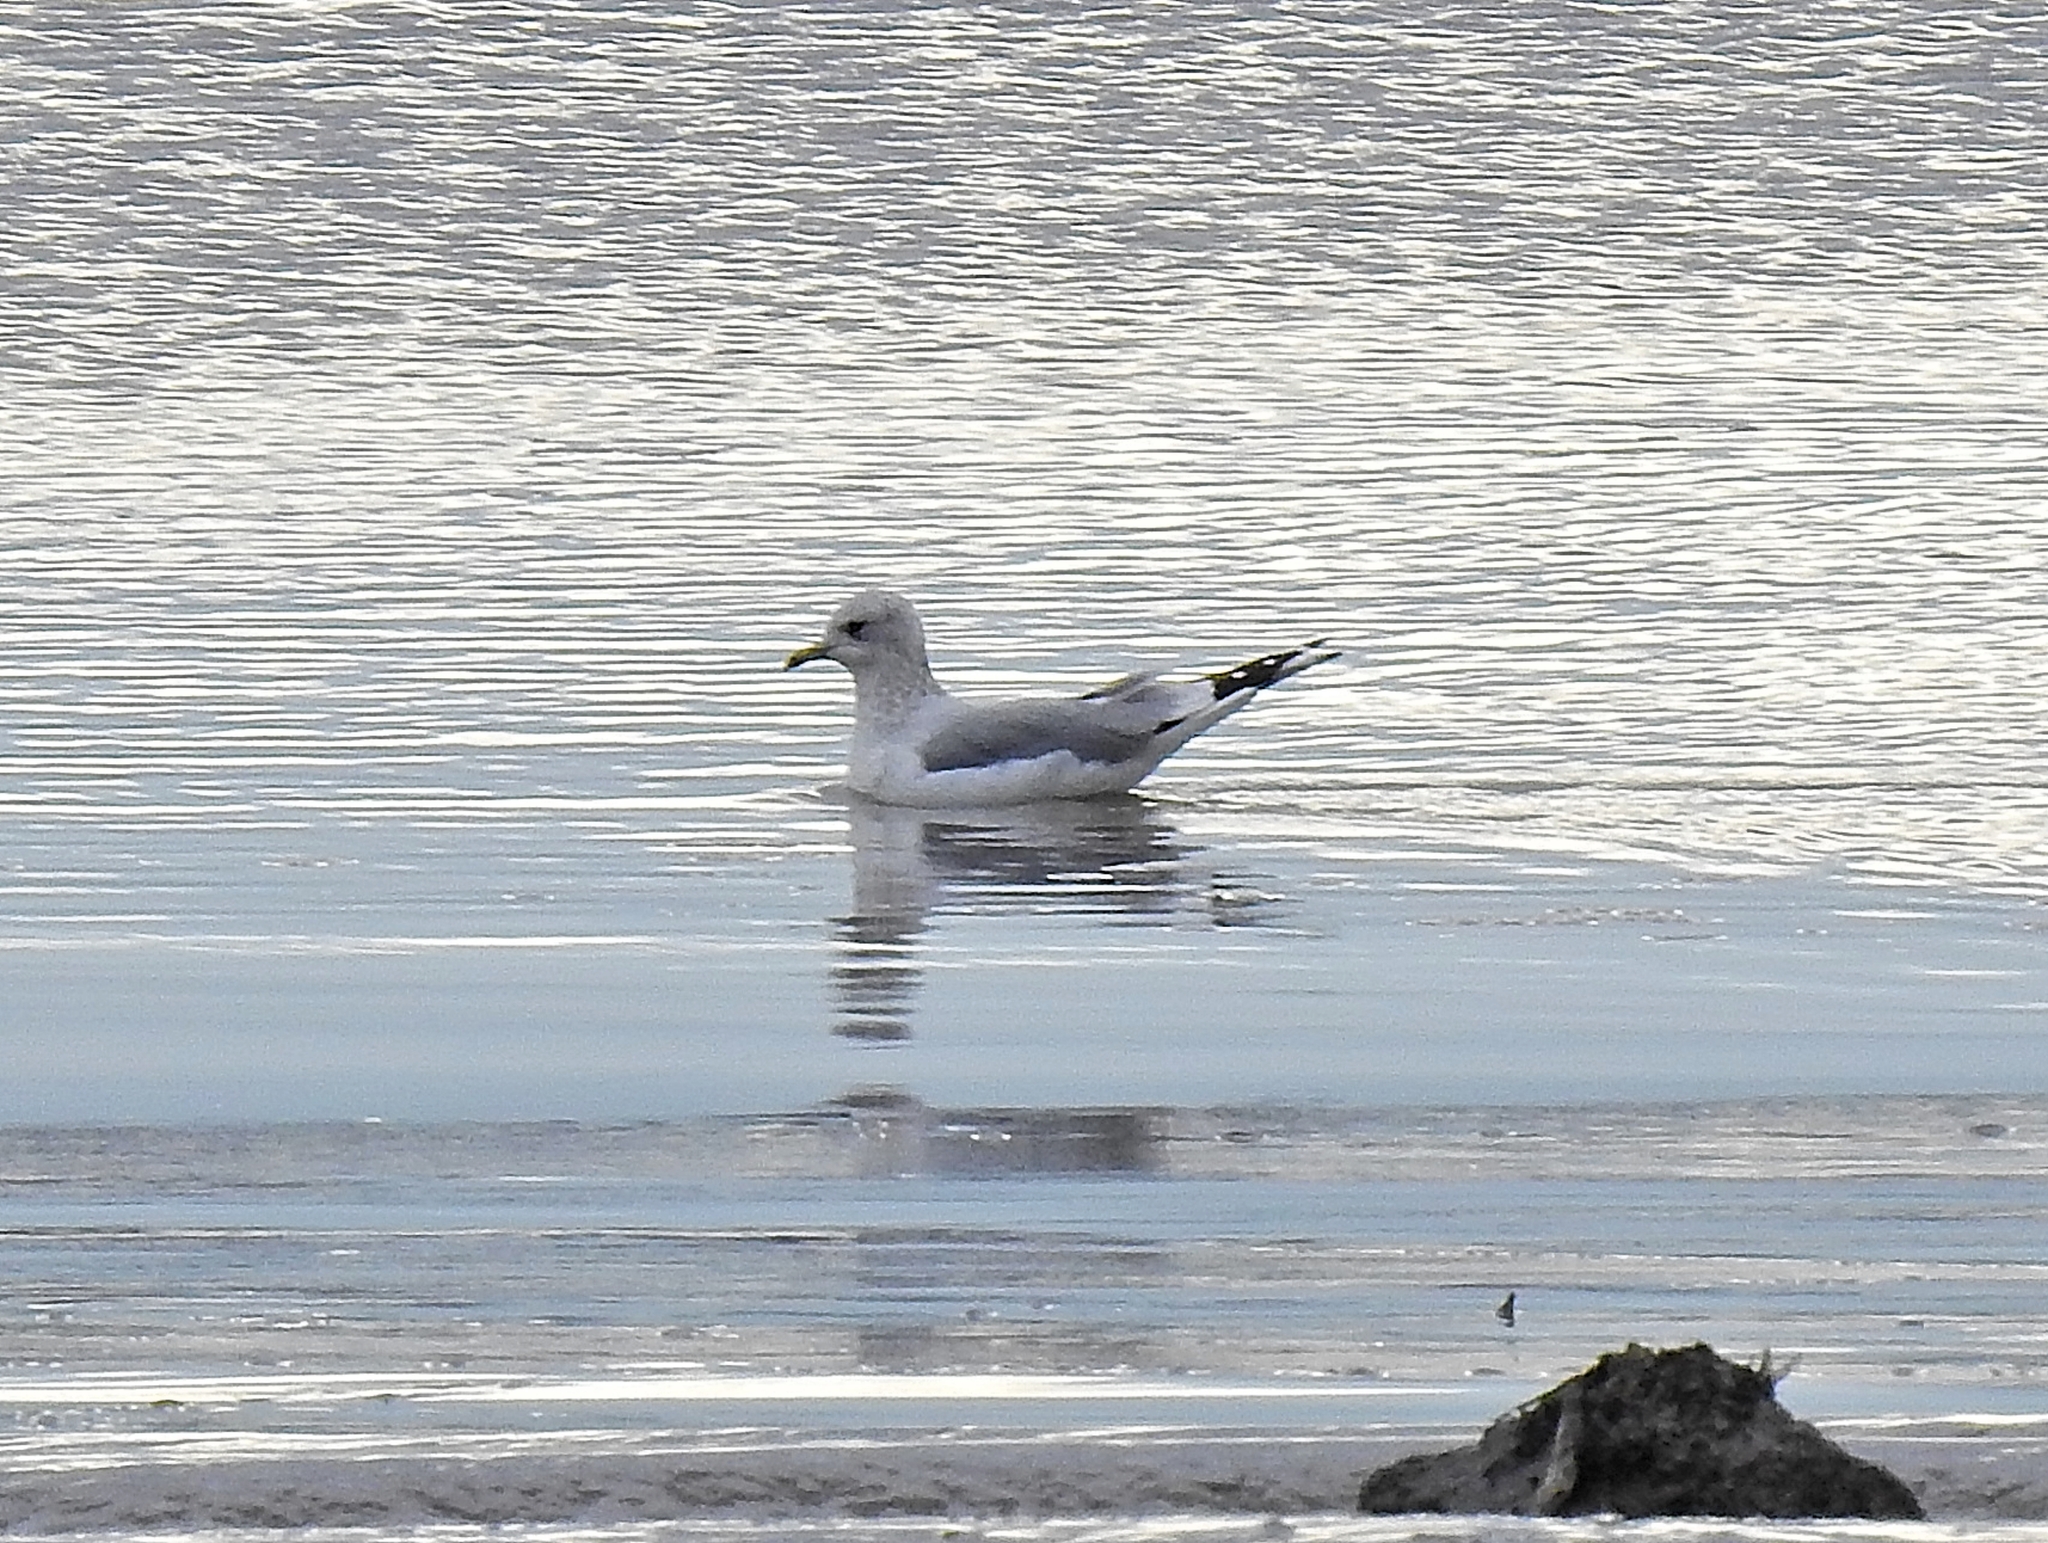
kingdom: Animalia
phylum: Chordata
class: Aves
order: Charadriiformes
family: Laridae
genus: Larus
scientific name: Larus canus
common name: Mew gull
